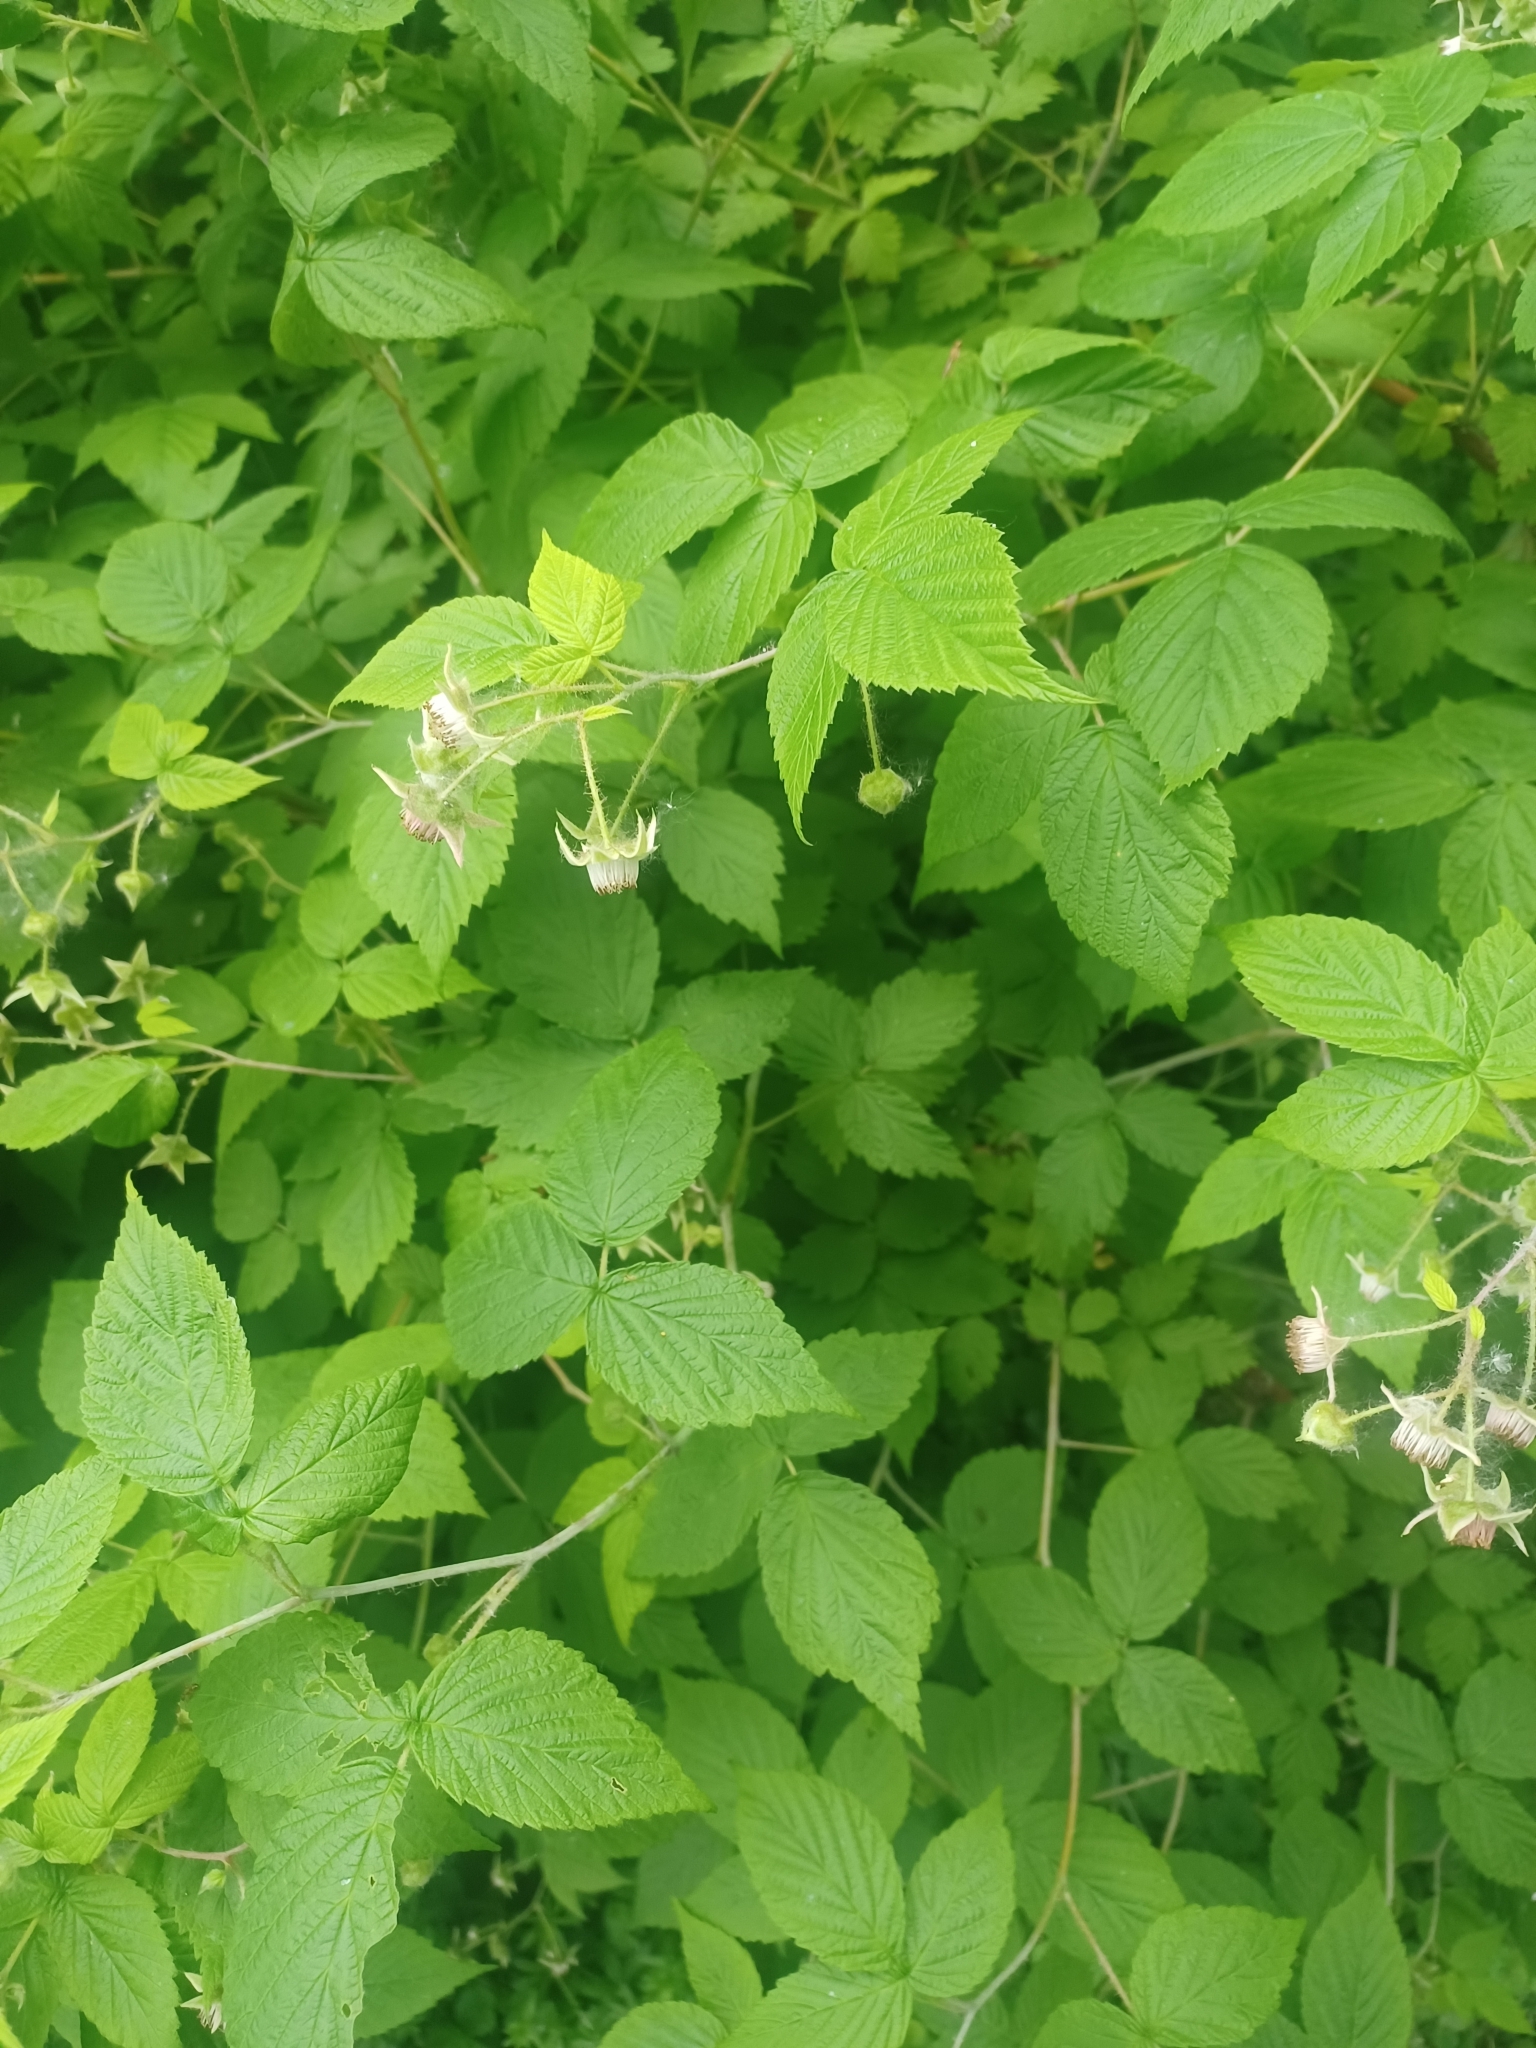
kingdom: Plantae
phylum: Tracheophyta
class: Magnoliopsida
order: Rosales
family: Rosaceae
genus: Rubus
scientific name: Rubus idaeus
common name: Raspberry
